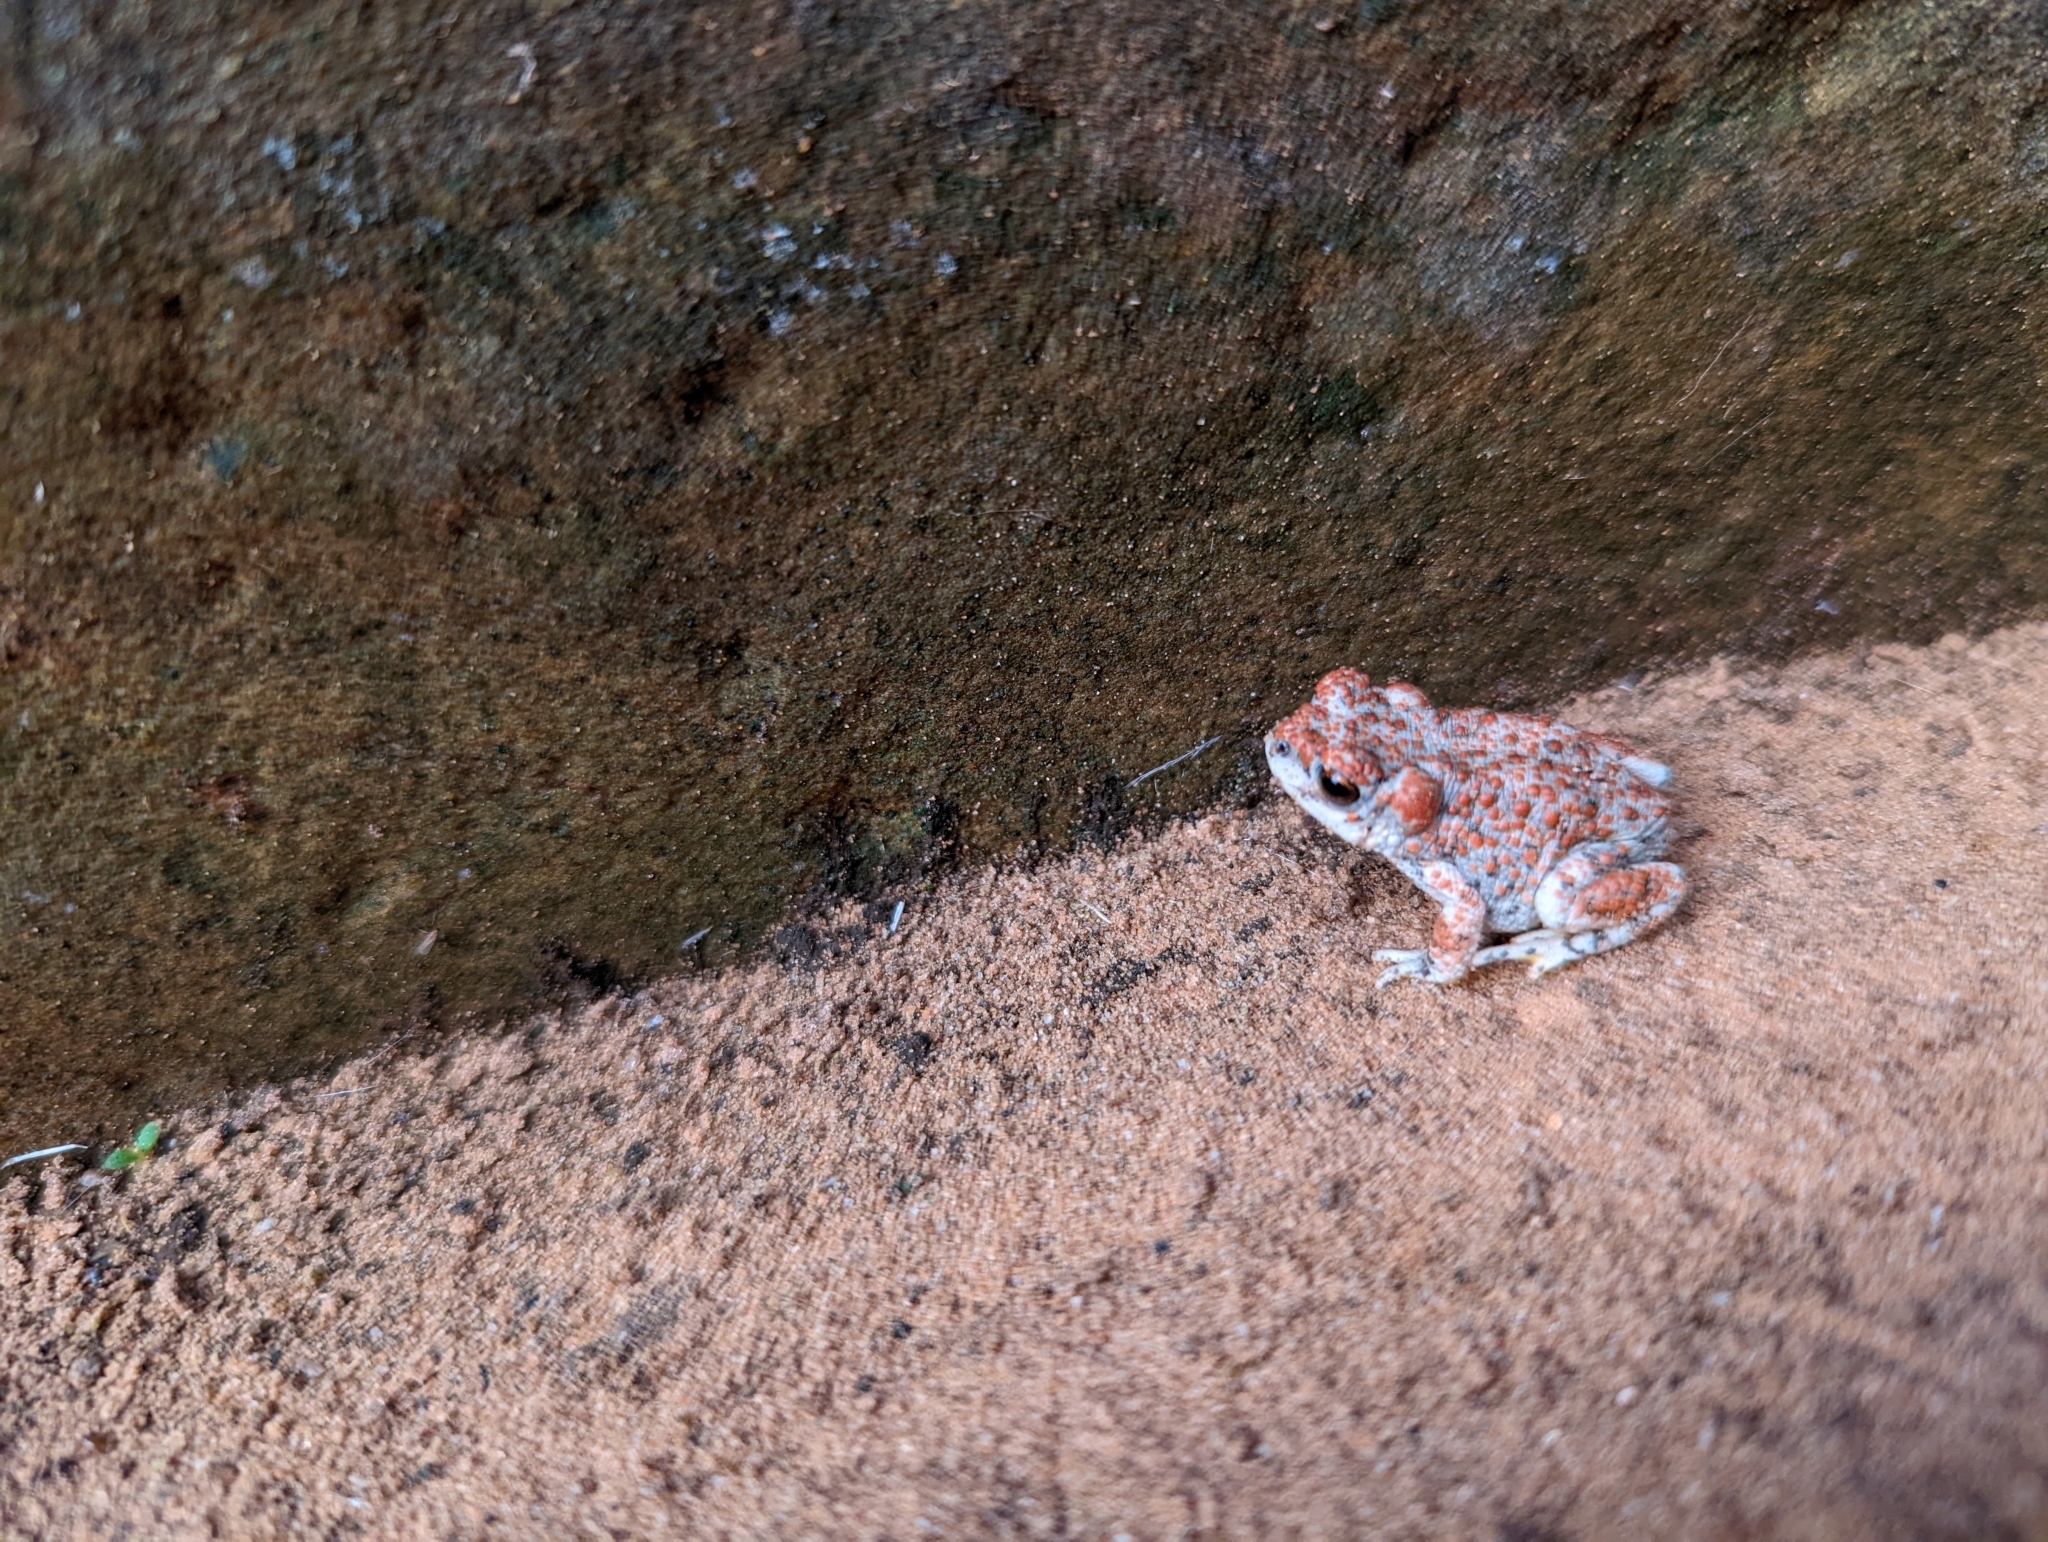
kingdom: Animalia
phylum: Chordata
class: Amphibia
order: Anura
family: Bufonidae
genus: Anaxyrus
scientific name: Anaxyrus punctatus
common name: Red-spotted toad
